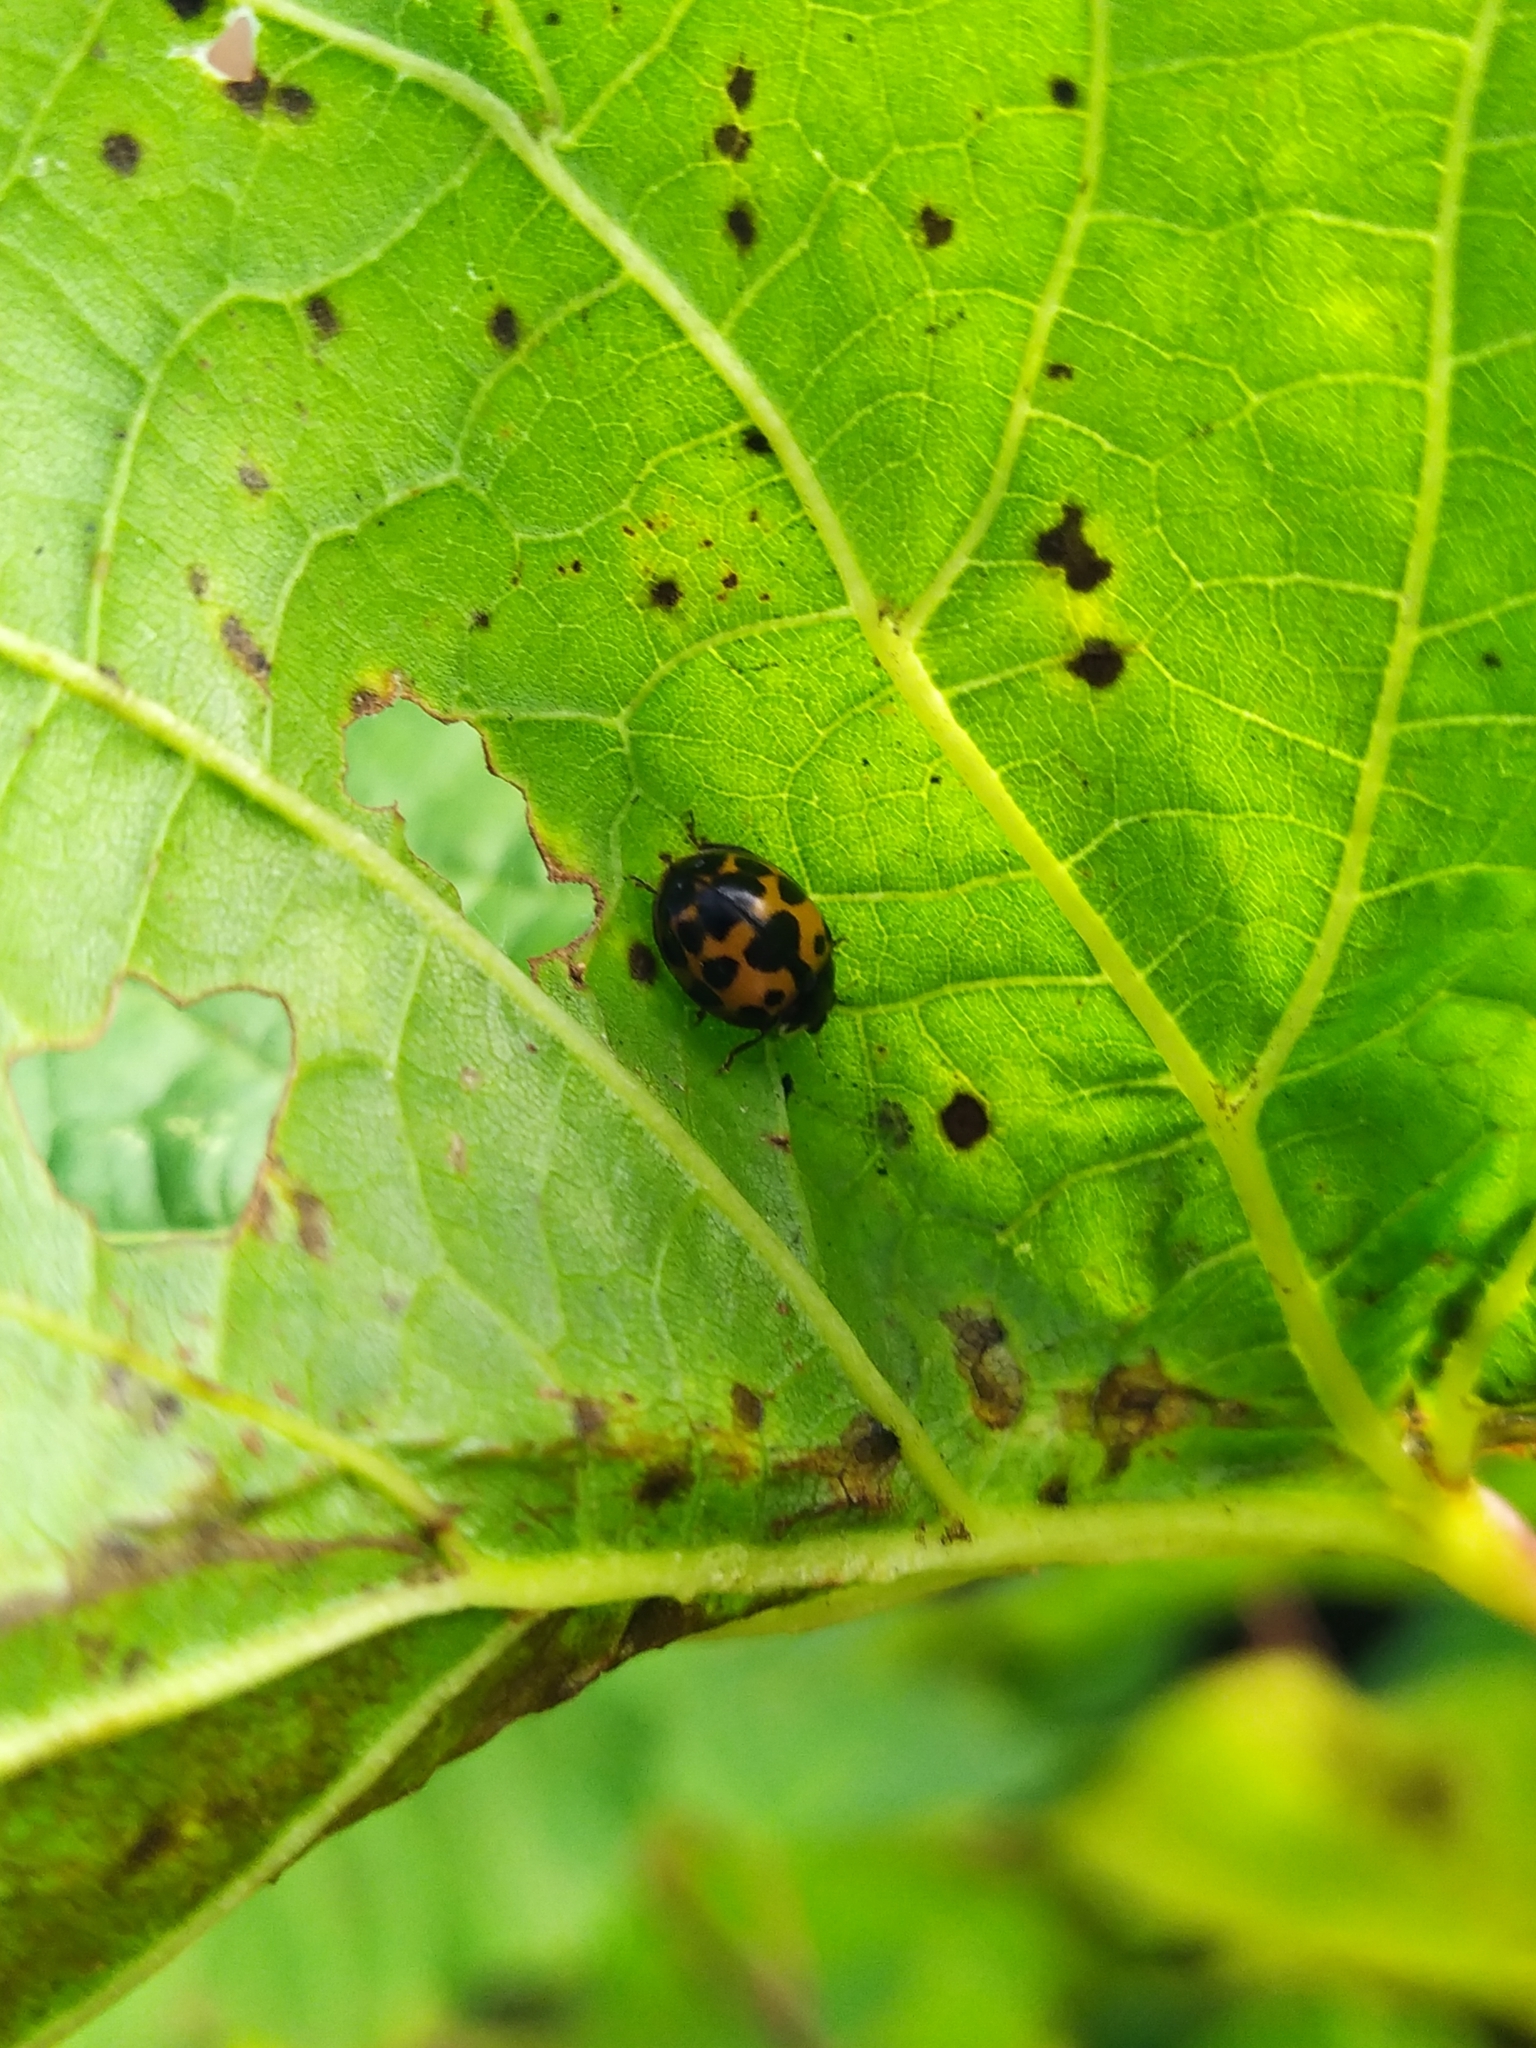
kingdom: Animalia
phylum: Arthropoda
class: Insecta
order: Coleoptera
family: Coccinellidae
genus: Harmonia
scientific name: Harmonia axyridis
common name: Harlequin ladybird
